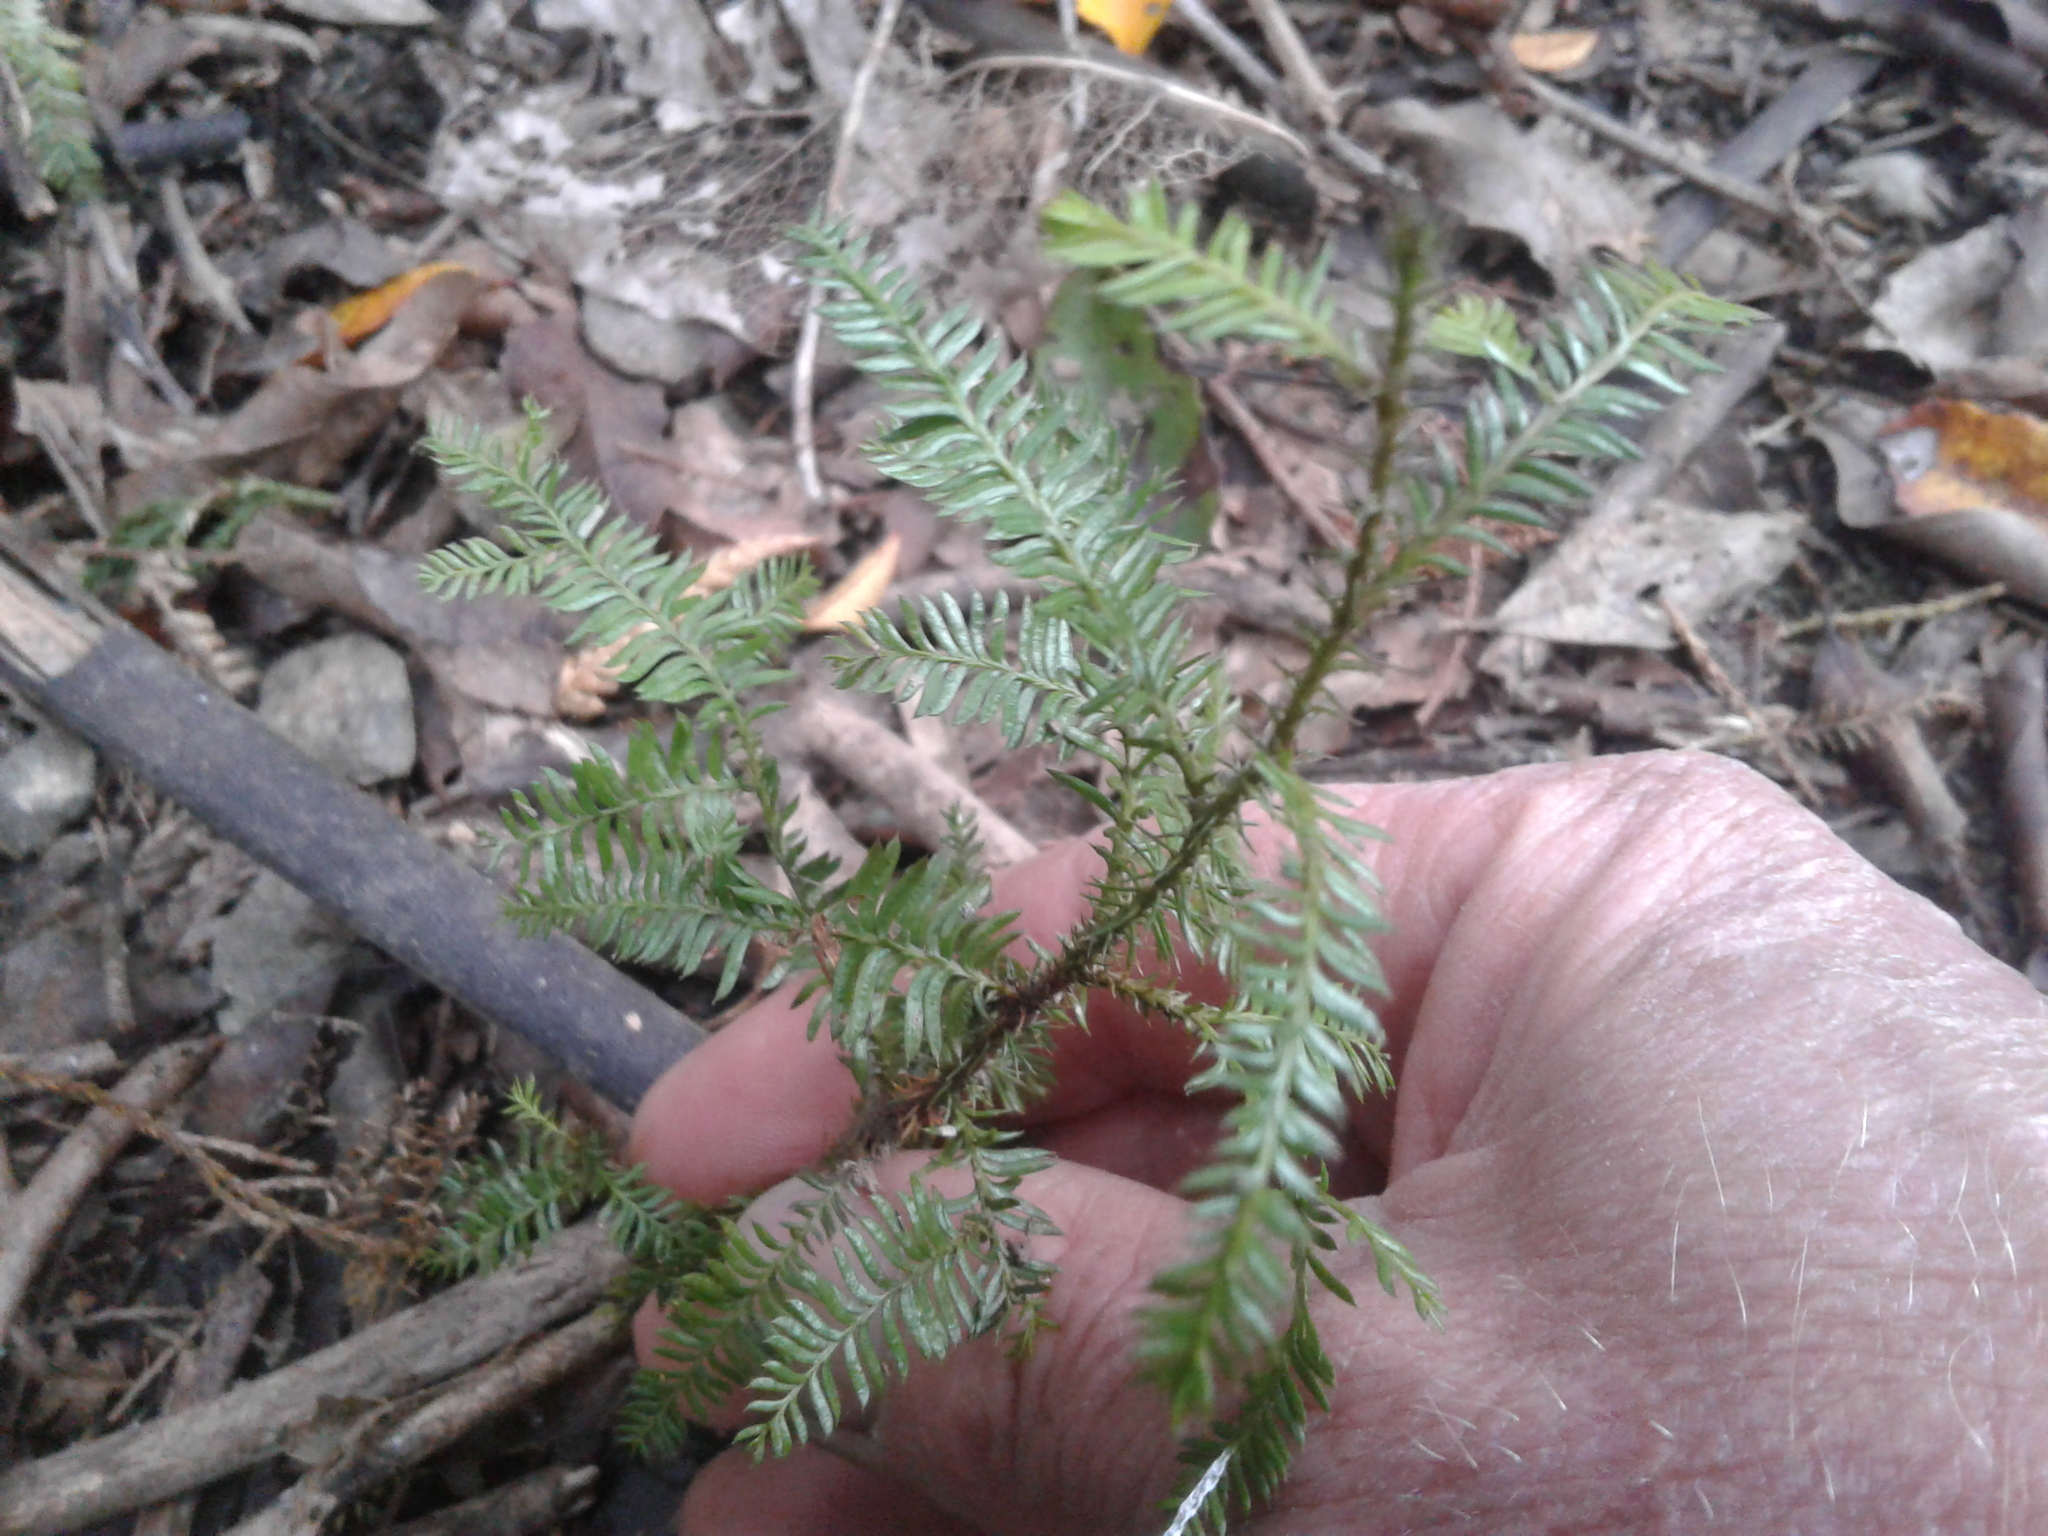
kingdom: Plantae
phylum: Tracheophyta
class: Pinopsida
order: Pinales
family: Podocarpaceae
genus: Dacrycarpus
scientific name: Dacrycarpus dacrydioides
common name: White pine
